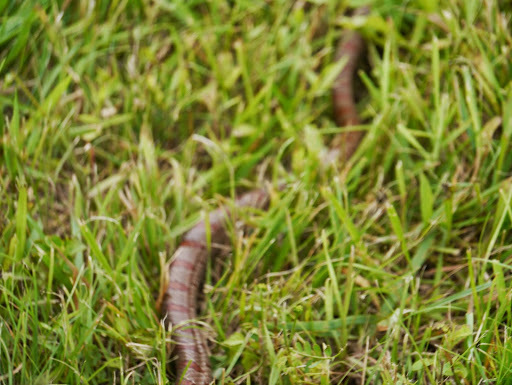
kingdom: Animalia
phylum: Chordata
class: Squamata
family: Colubridae
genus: Lampropeltis
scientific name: Lampropeltis rhombomaculata
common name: Mole kingsnake
